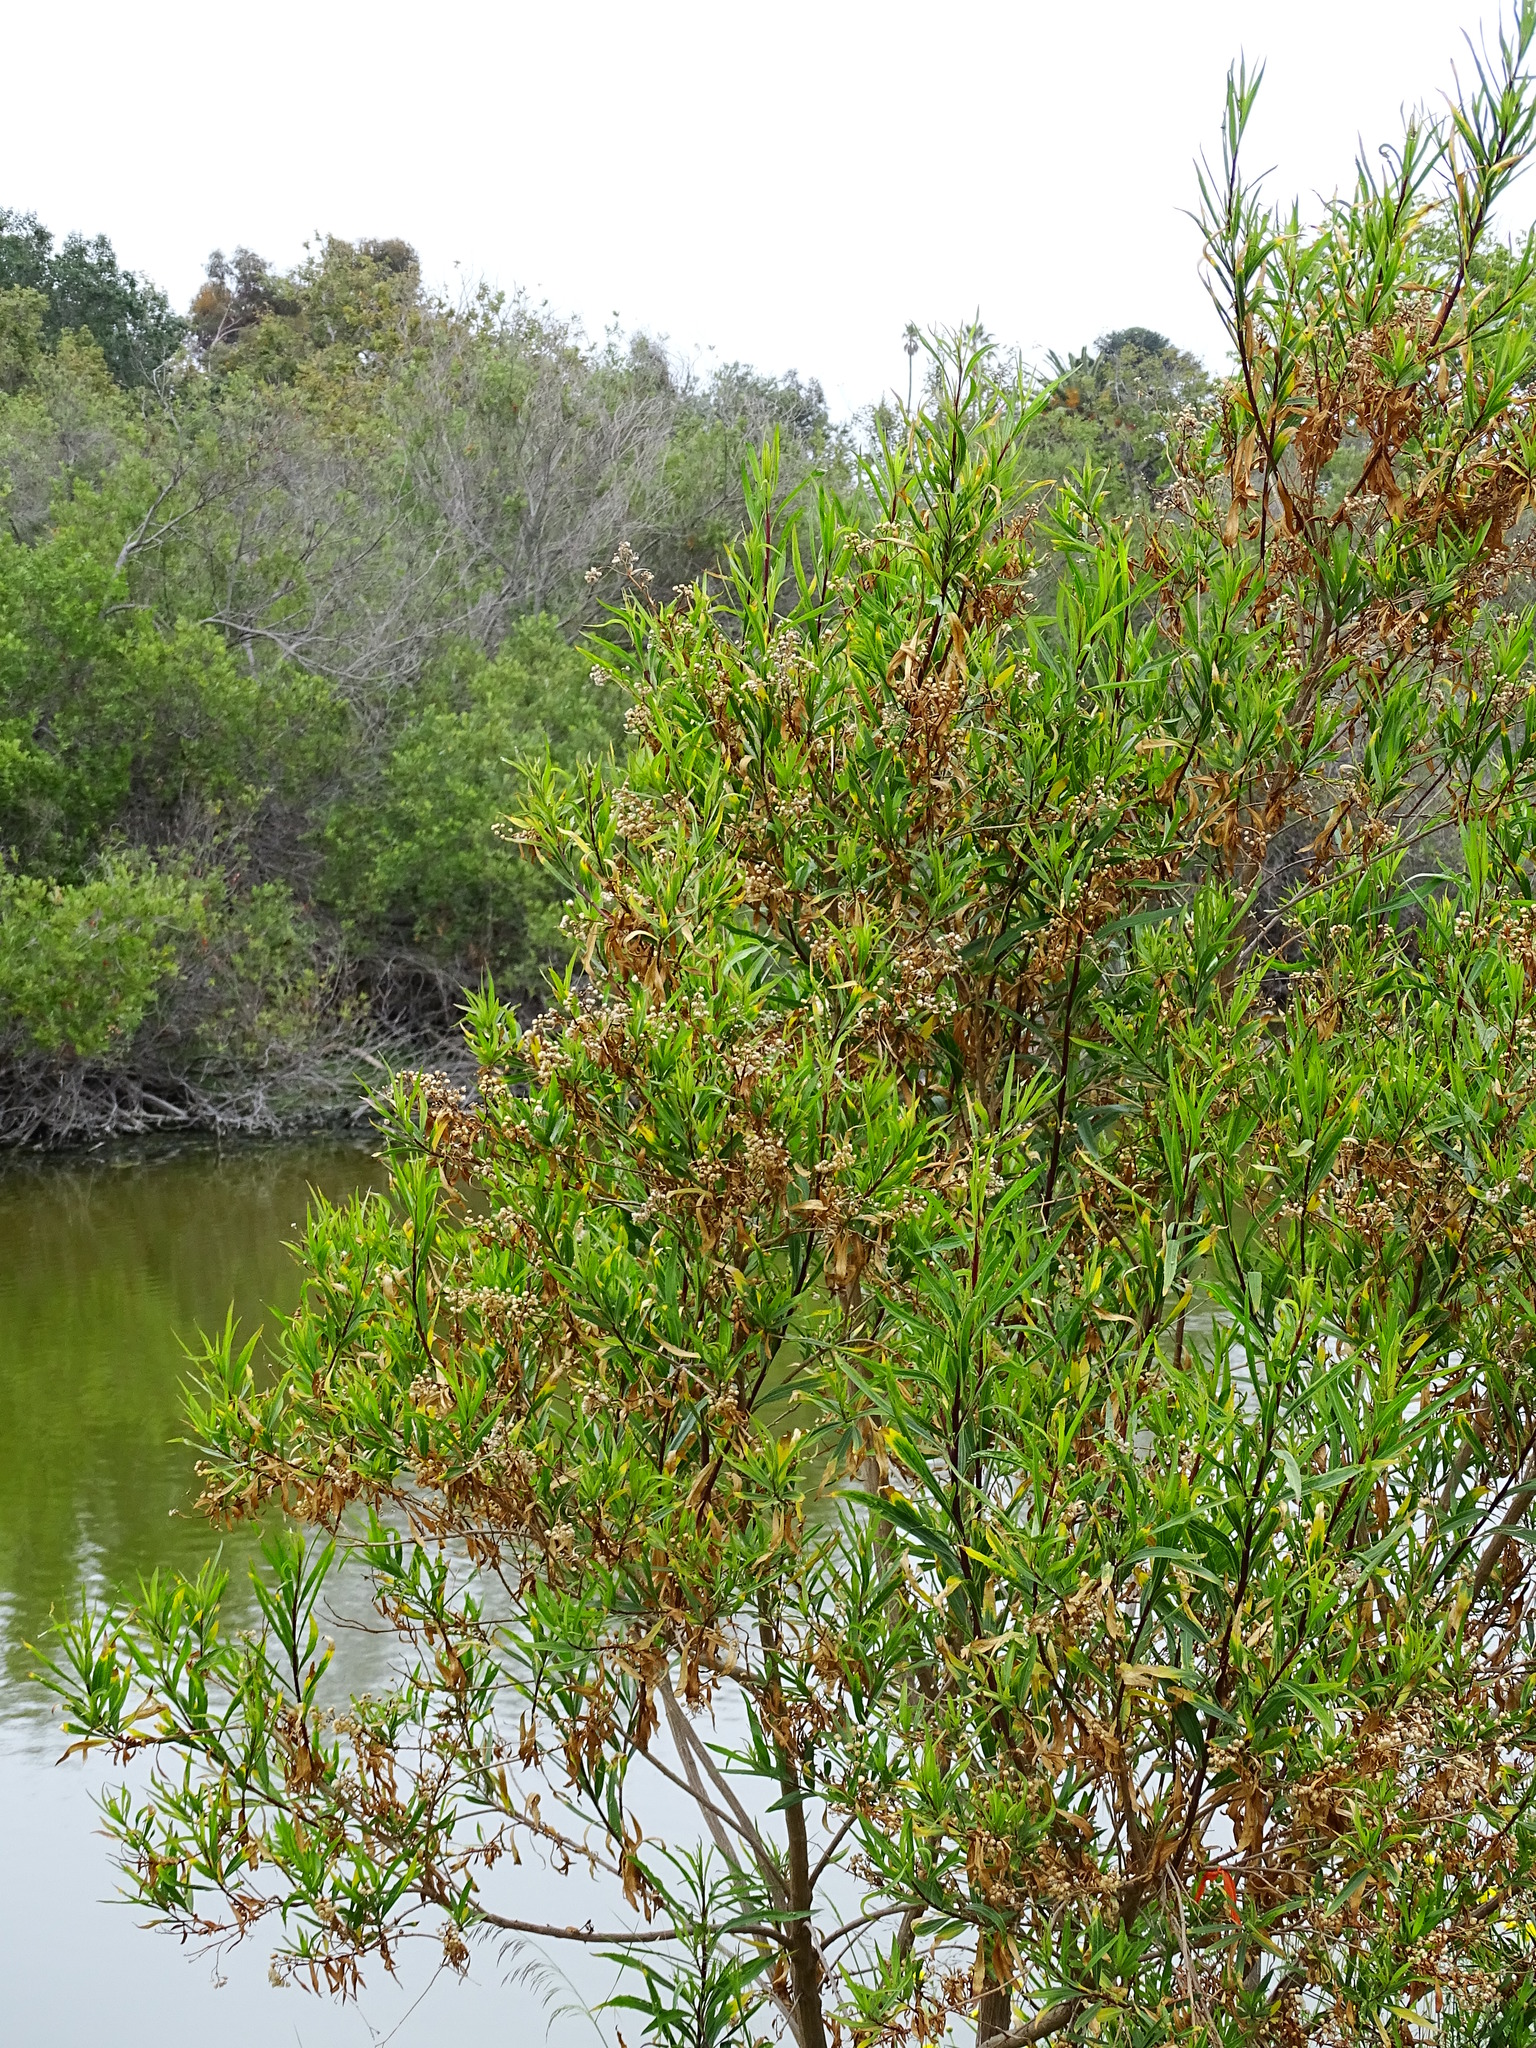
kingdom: Plantae
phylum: Tracheophyta
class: Magnoliopsida
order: Asterales
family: Asteraceae
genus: Baccharis
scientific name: Baccharis salicifolia
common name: Sticky baccharis
